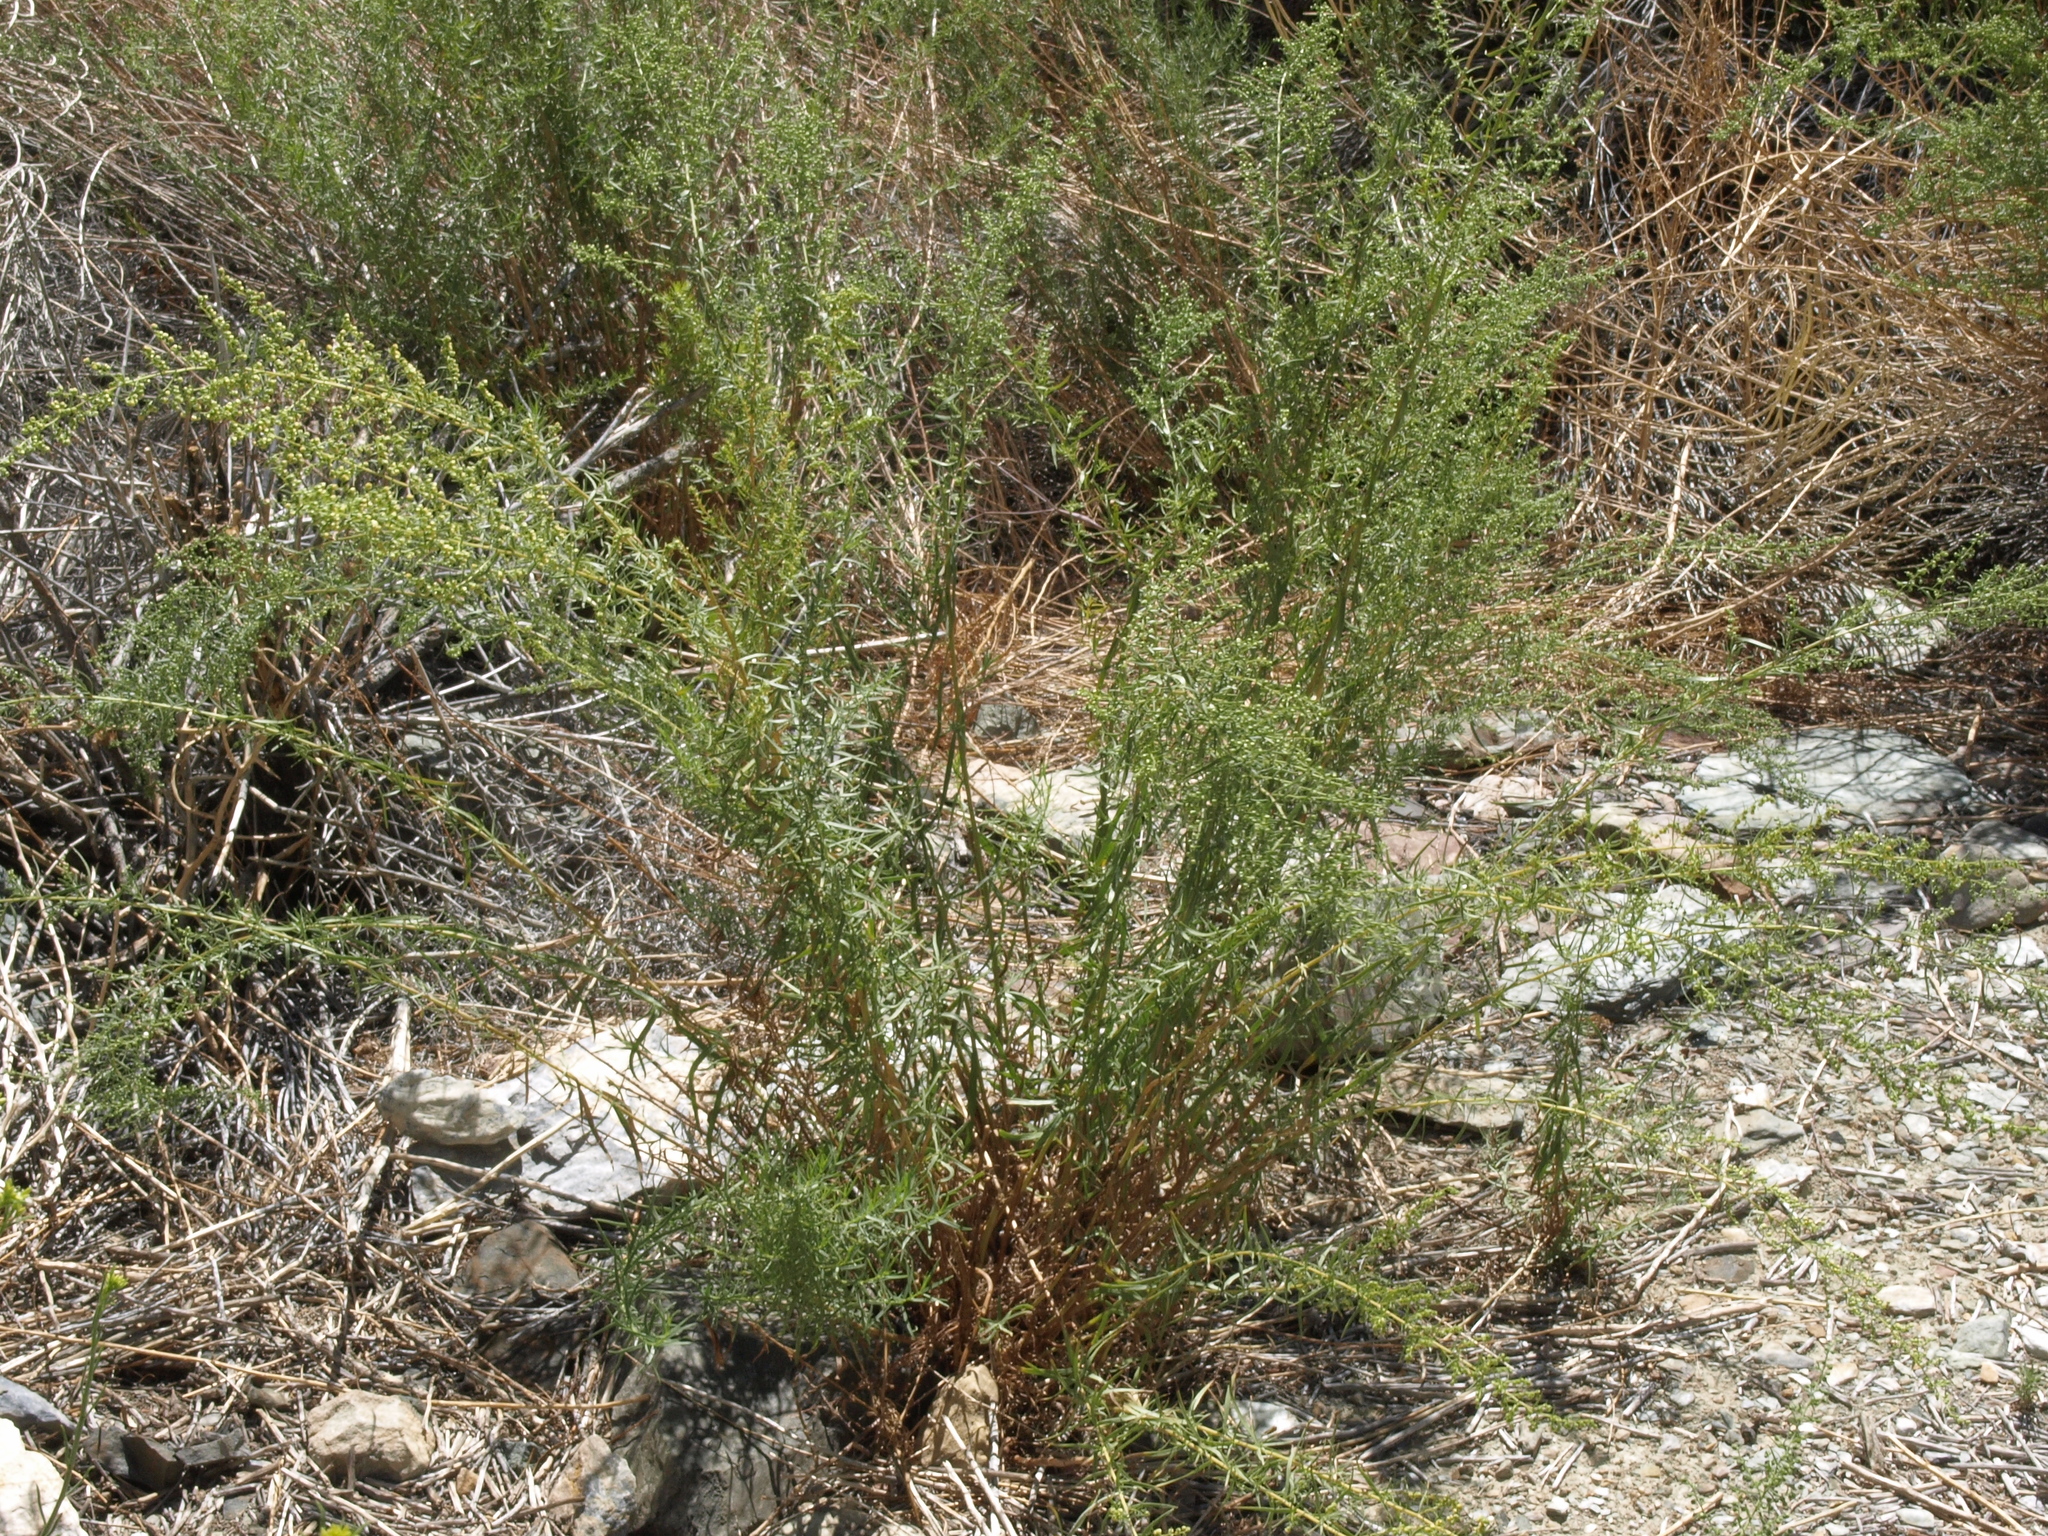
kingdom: Plantae
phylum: Tracheophyta
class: Magnoliopsida
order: Asterales
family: Asteraceae
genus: Artemisia
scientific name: Artemisia dracunculus
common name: Tarragon
